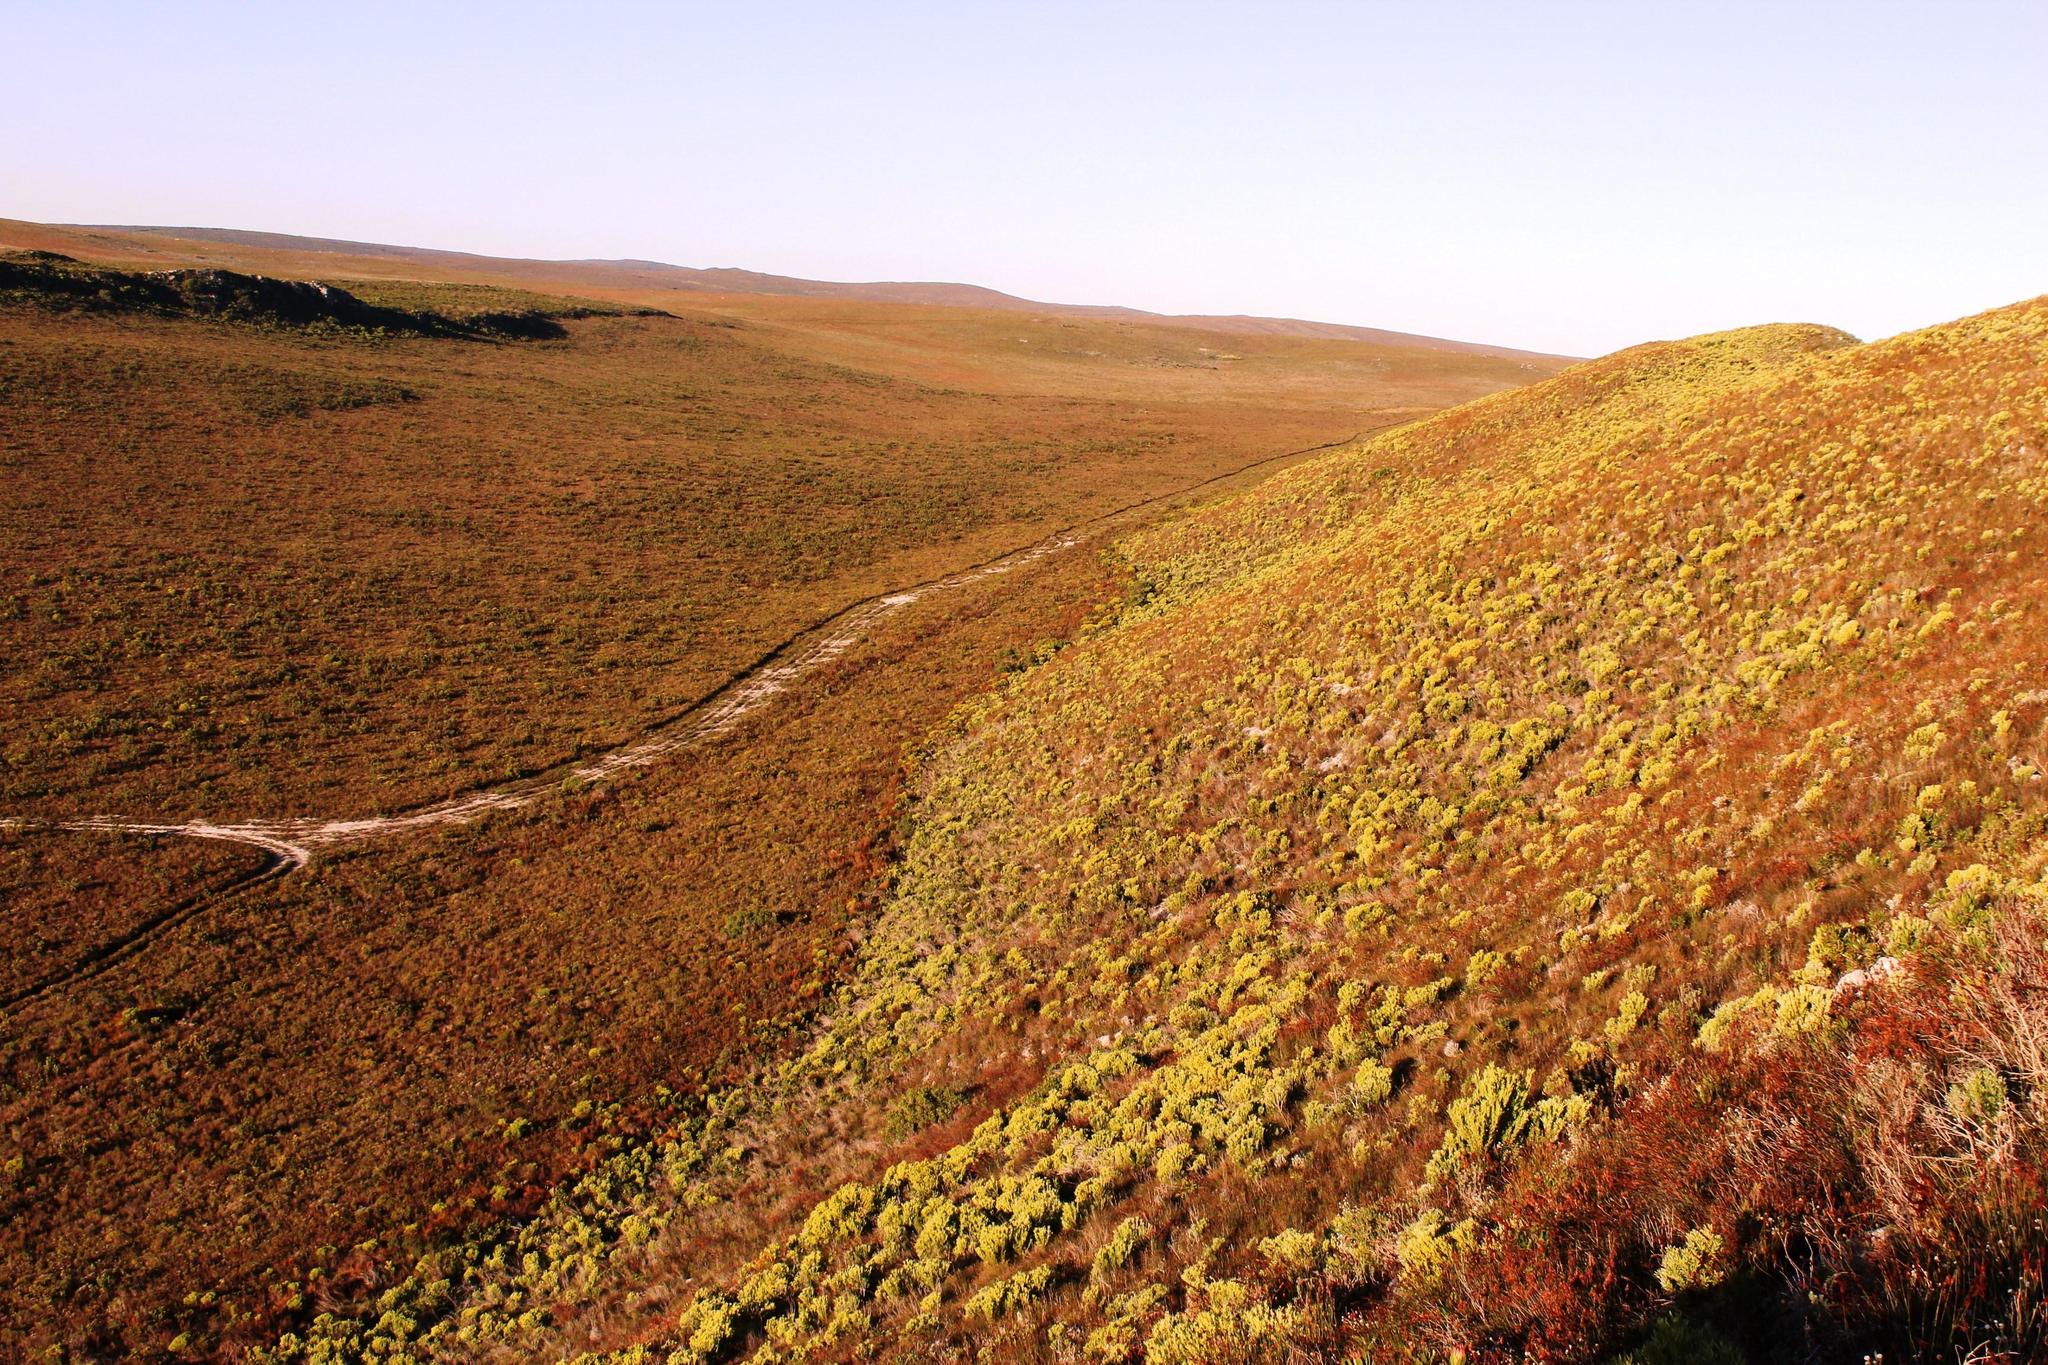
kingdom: Plantae
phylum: Tracheophyta
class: Magnoliopsida
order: Proteales
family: Proteaceae
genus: Leucadendron
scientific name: Leucadendron meridianum
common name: Limestone conebush
